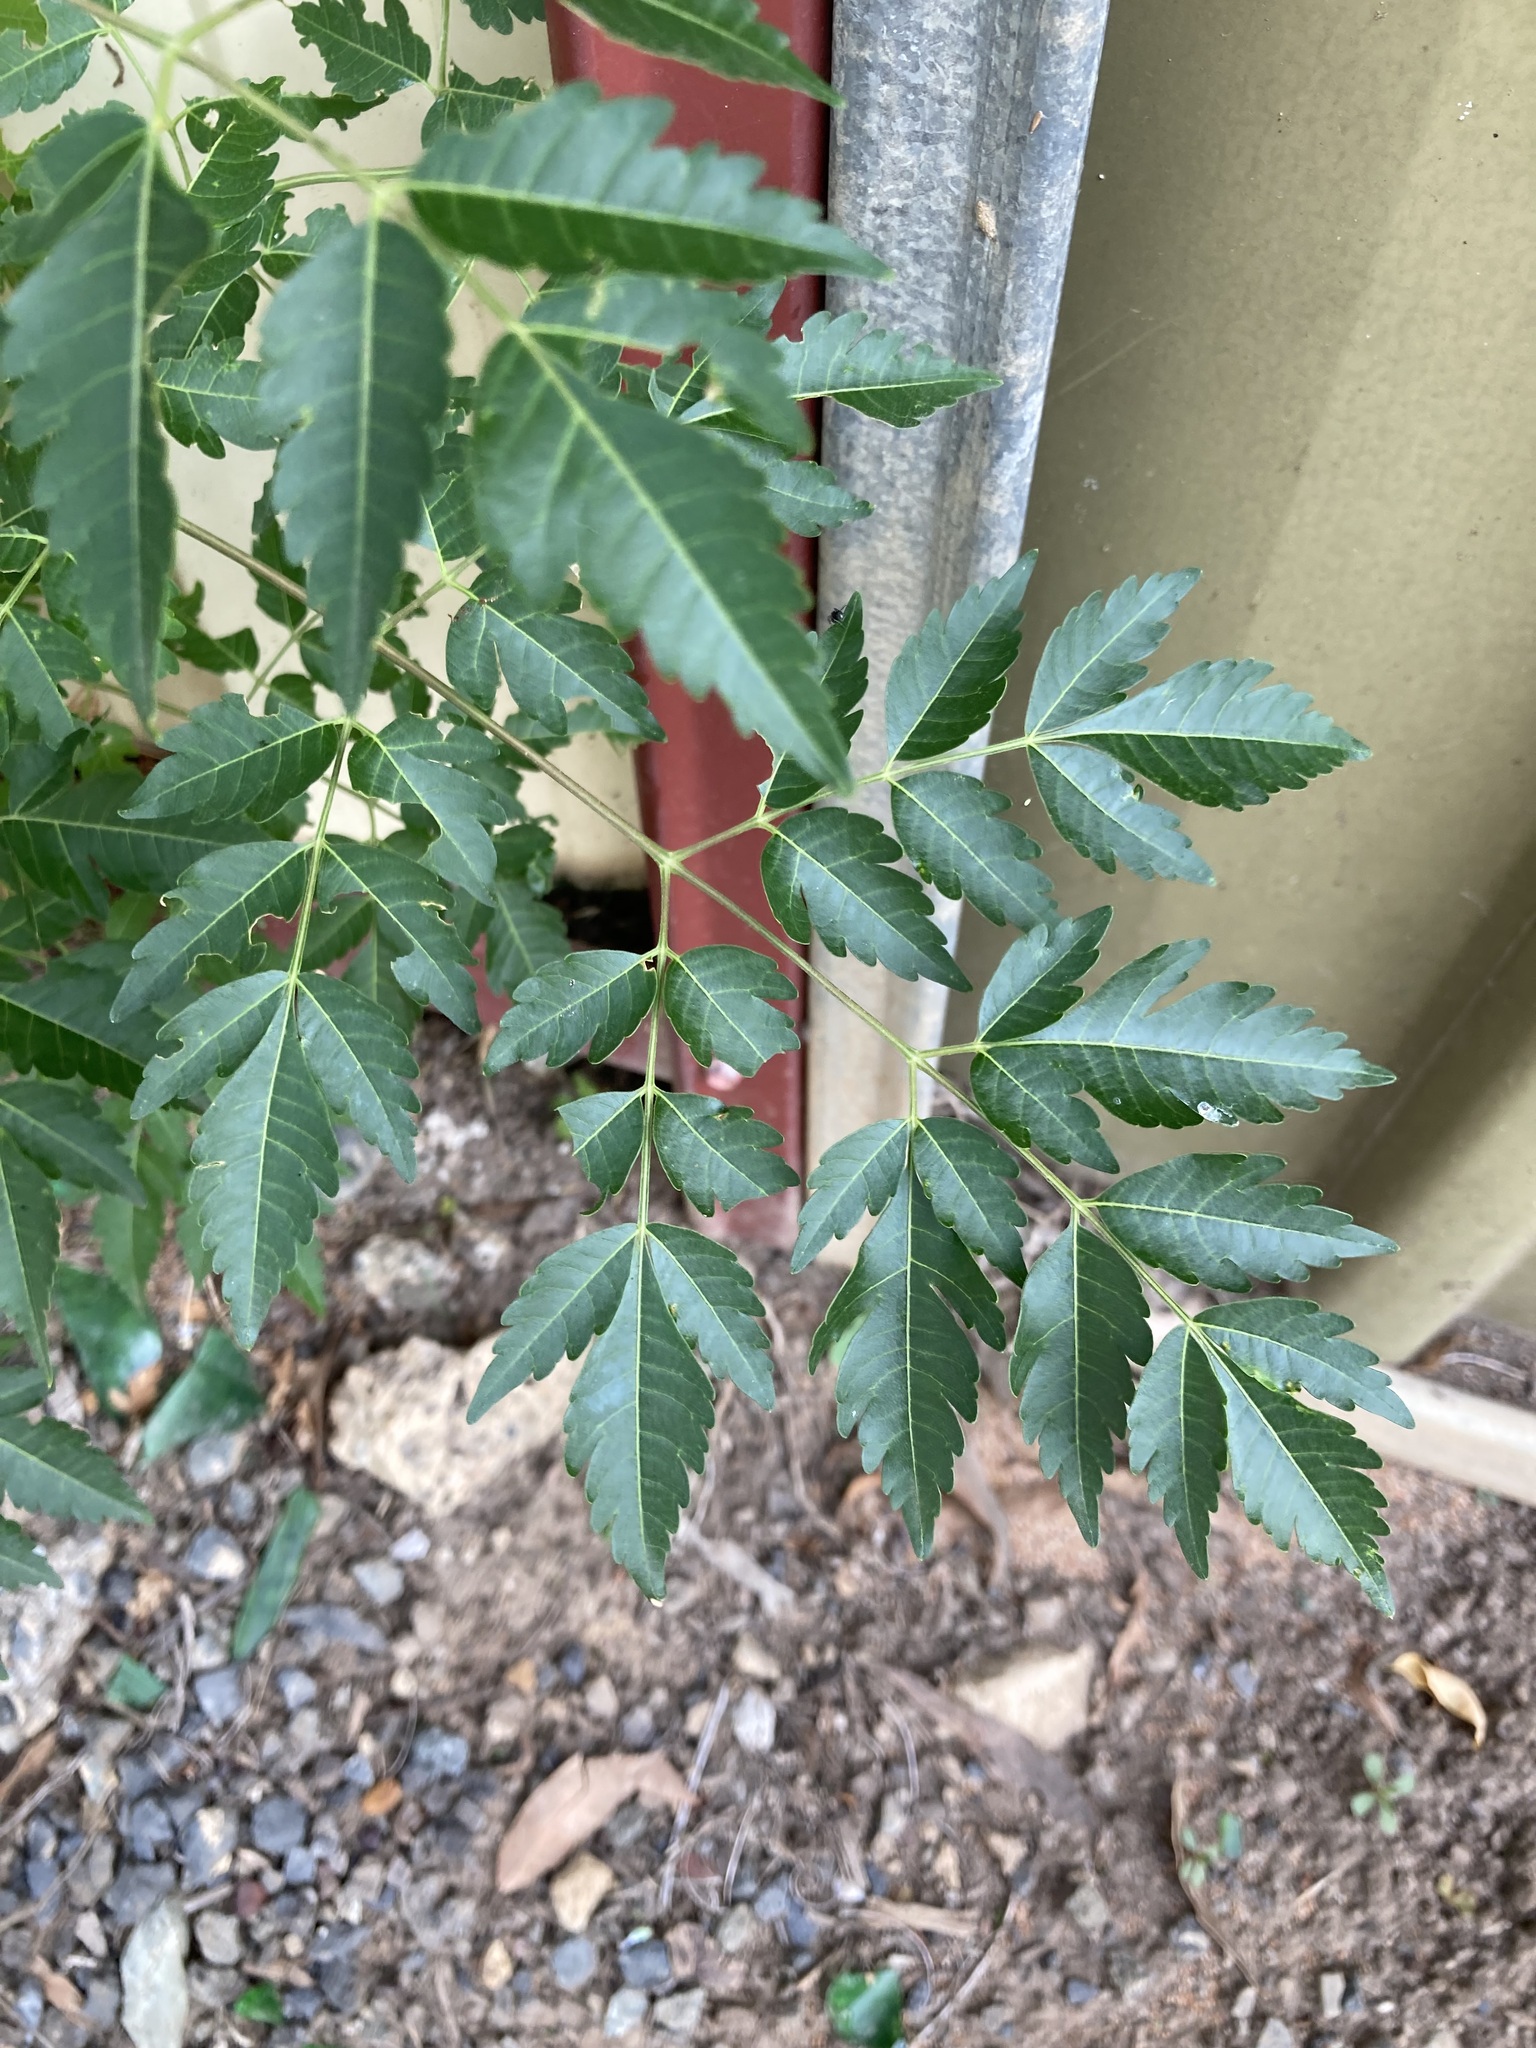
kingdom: Plantae
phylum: Tracheophyta
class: Magnoliopsida
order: Sapindales
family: Meliaceae
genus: Melia
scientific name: Melia azedarach
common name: Chinaberrytree
